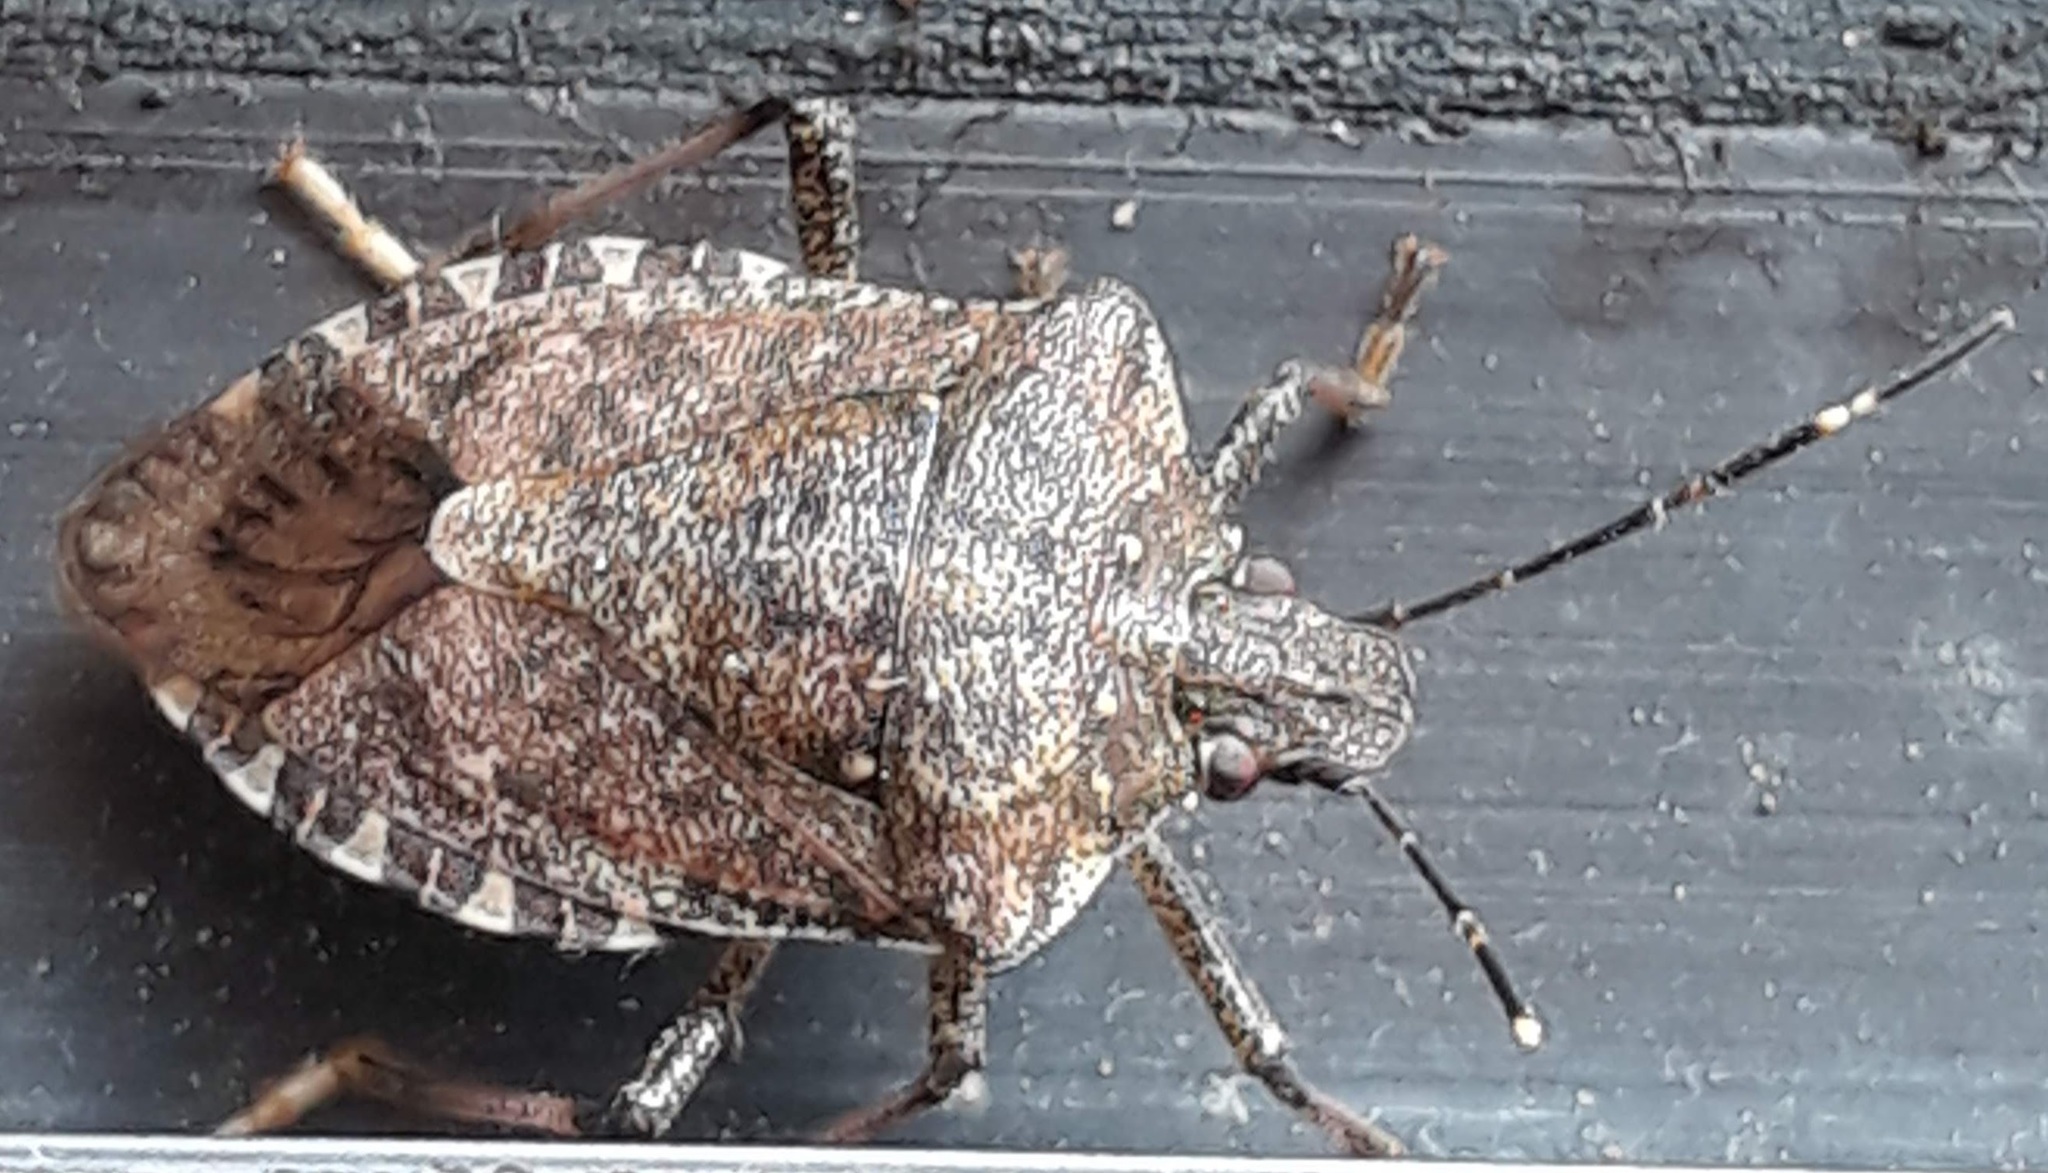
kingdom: Animalia
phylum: Arthropoda
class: Insecta
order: Hemiptera
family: Pentatomidae
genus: Halyomorpha
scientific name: Halyomorpha halys
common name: Brown marmorated stink bug
